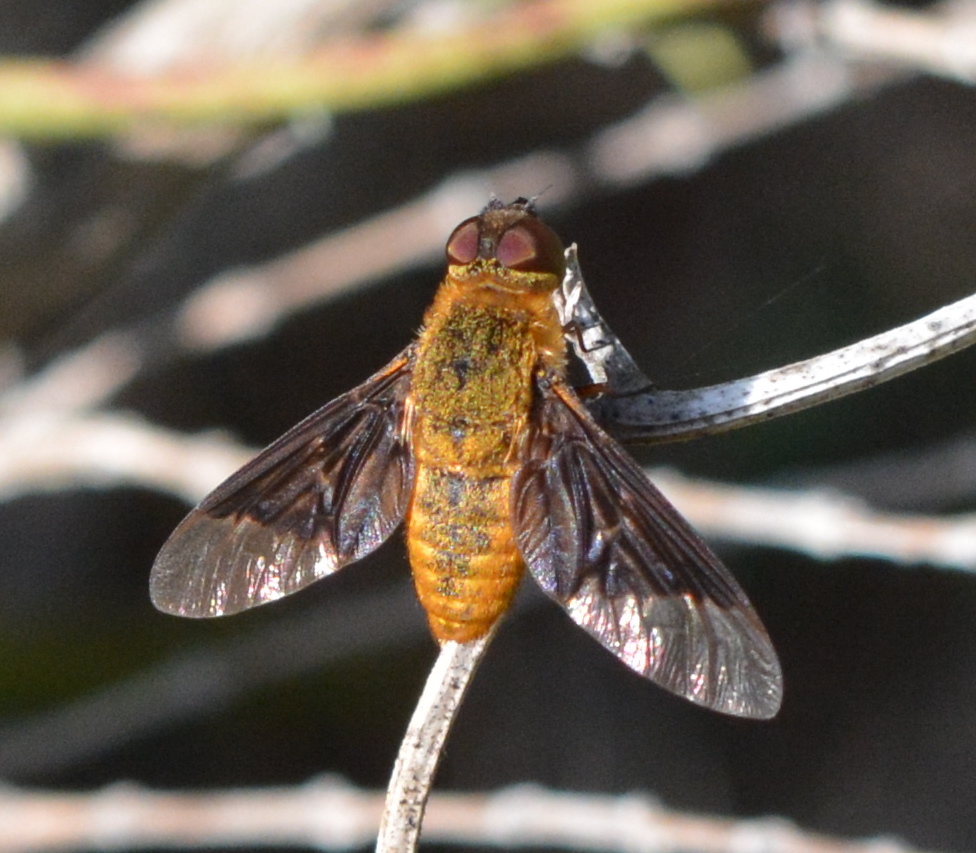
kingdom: Animalia
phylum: Arthropoda
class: Insecta
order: Diptera
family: Bombyliidae
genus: Chrysanthrax
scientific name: Chrysanthrax cypris
